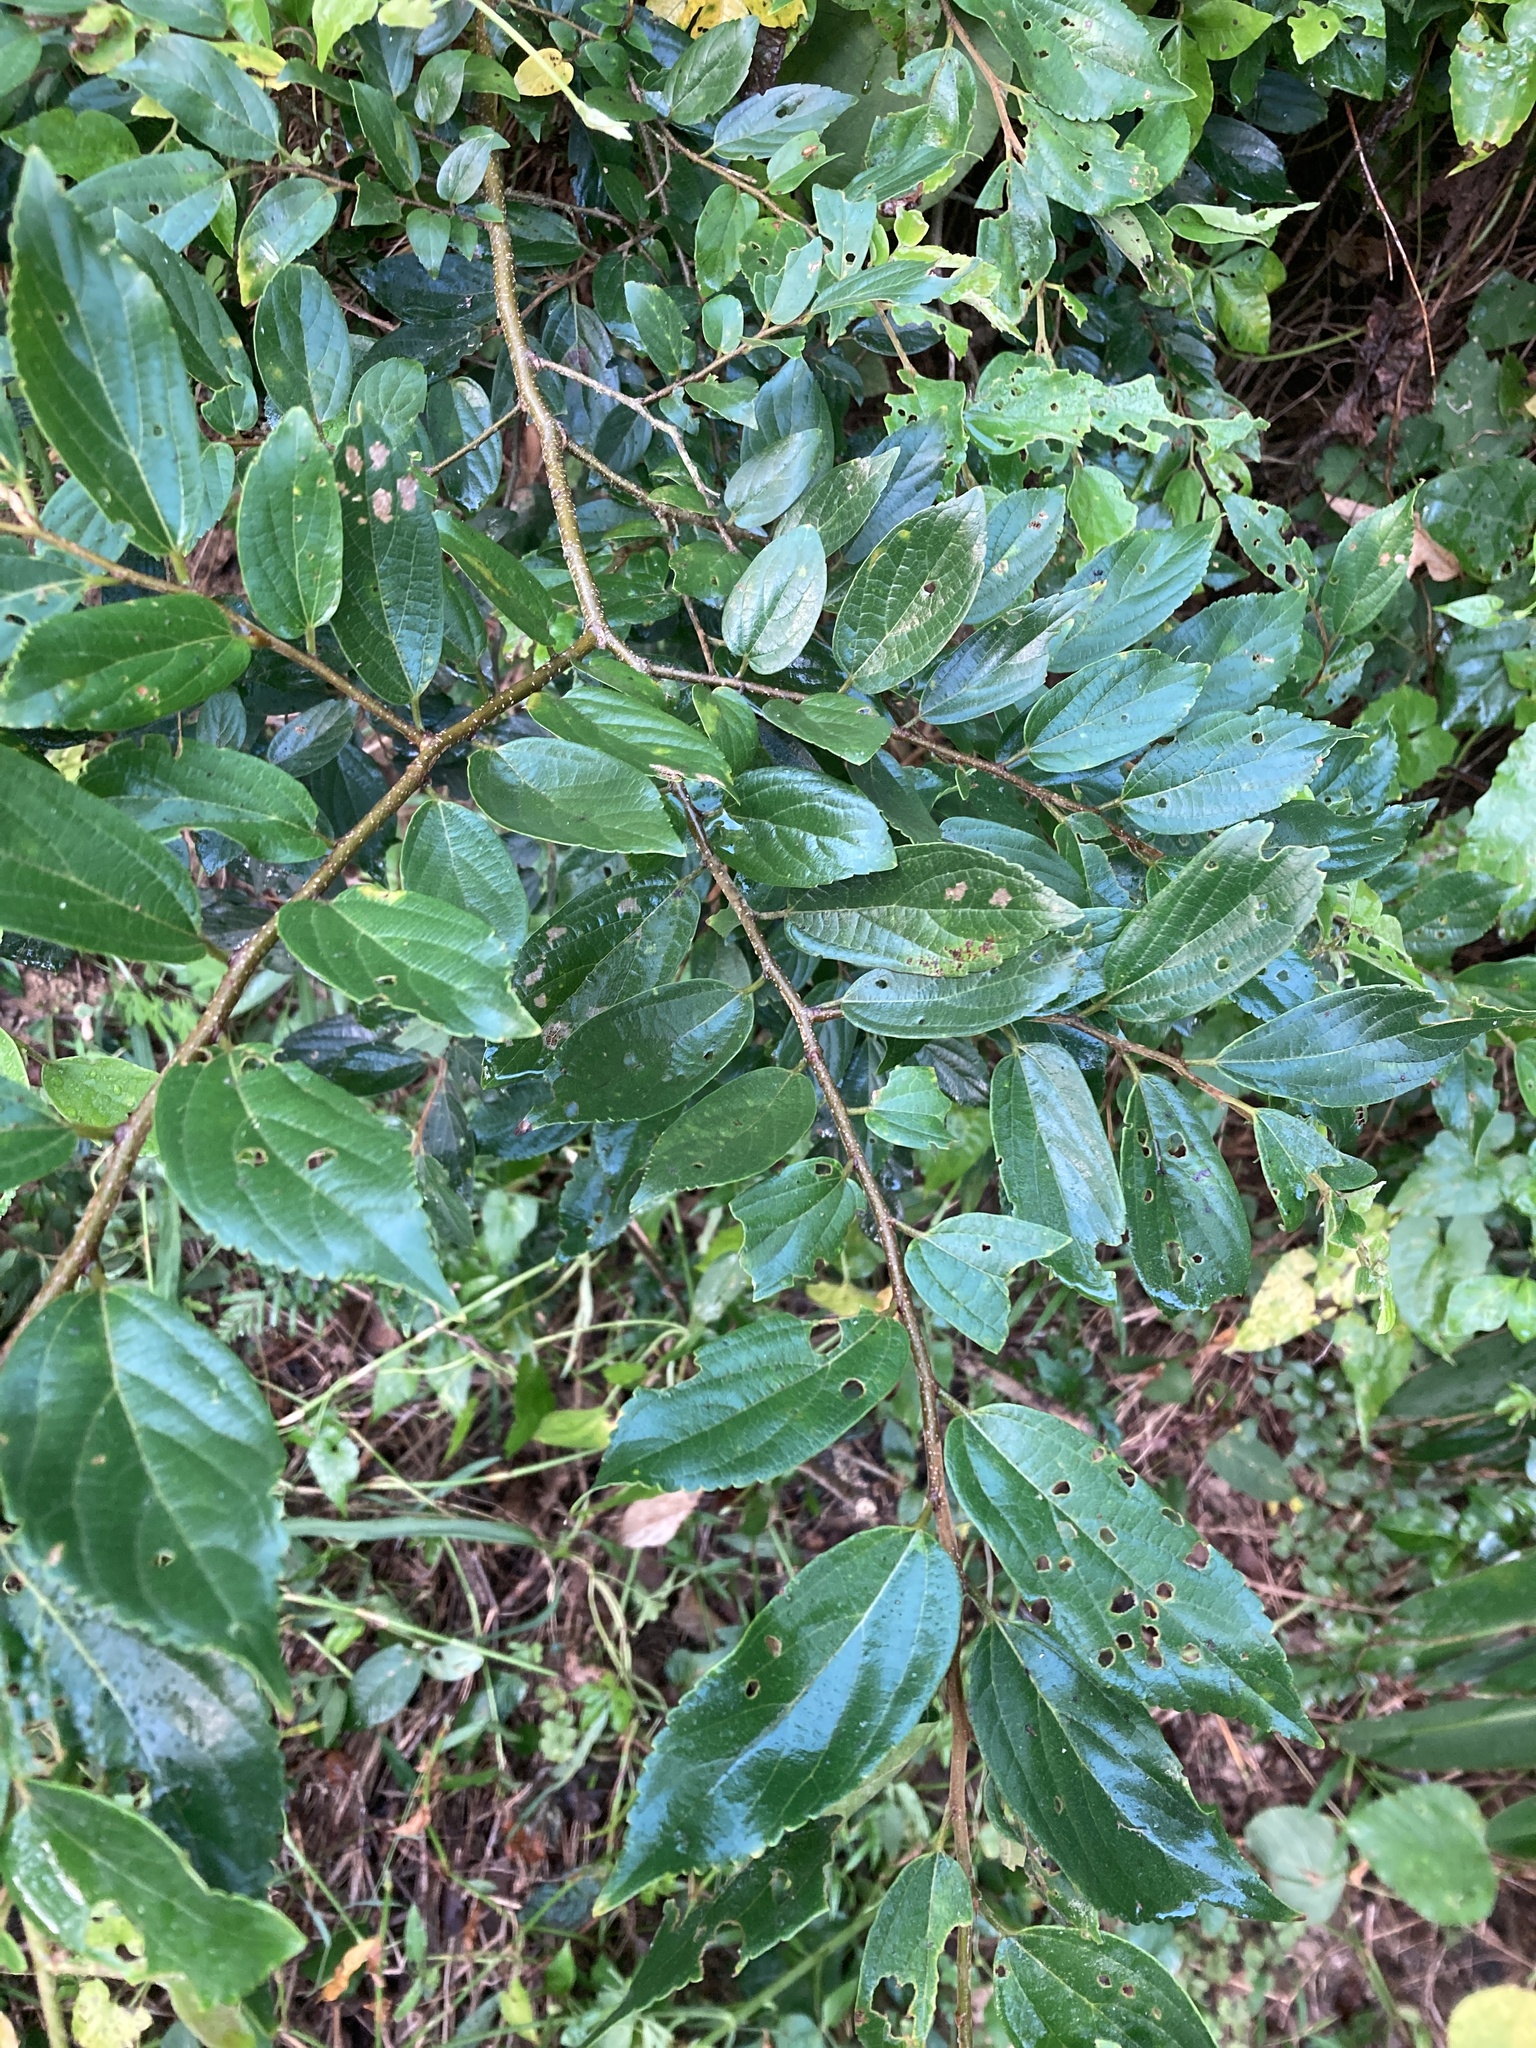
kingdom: Plantae
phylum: Tracheophyta
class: Magnoliopsida
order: Rosales
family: Cannabaceae
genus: Celtis
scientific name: Celtis sinensis
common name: Chinese hackberry
